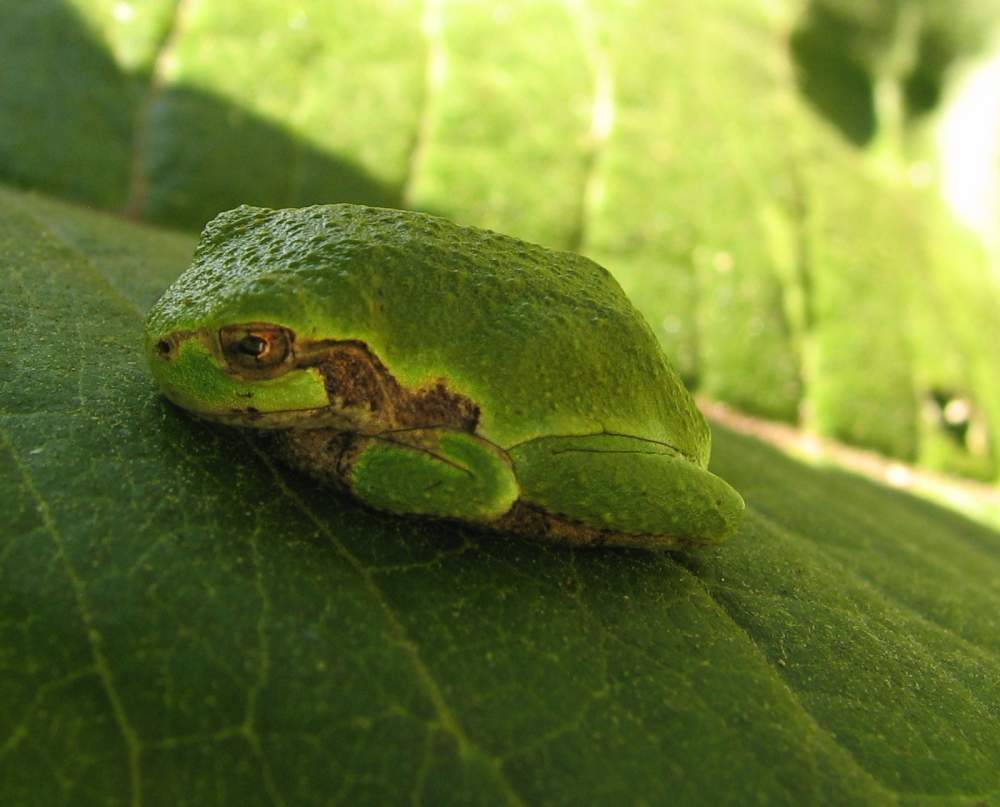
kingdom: Animalia
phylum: Chordata
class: Amphibia
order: Anura
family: Hylidae
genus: Dryophytes
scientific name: Dryophytes versicolor
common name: Gray treefrog
